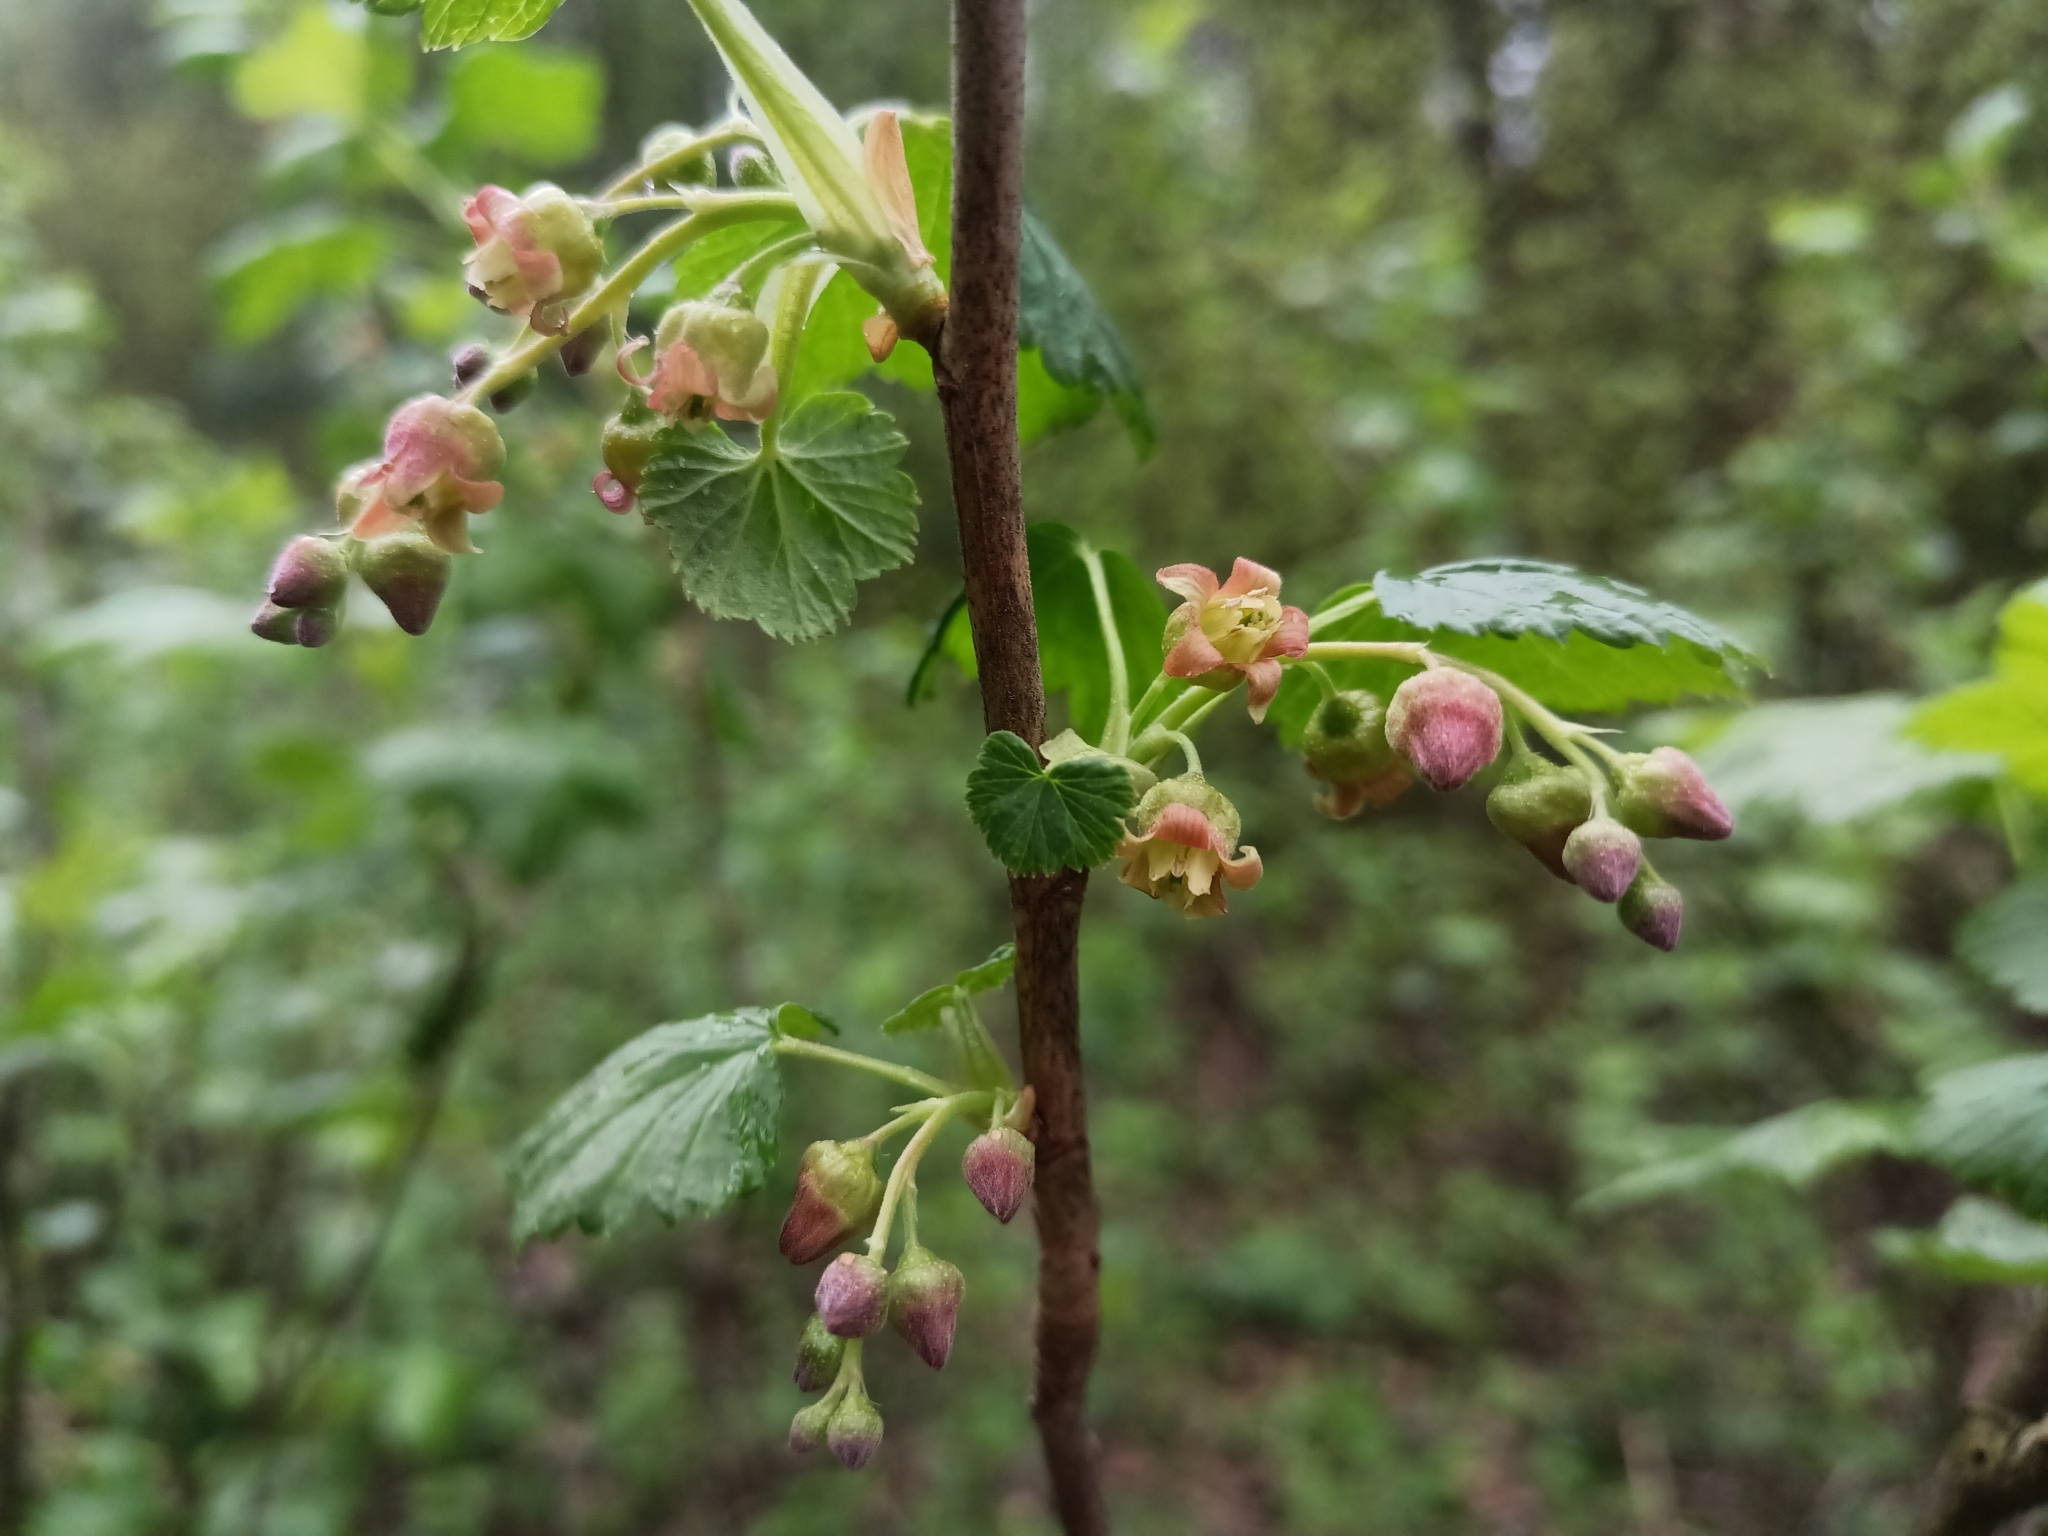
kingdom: Plantae
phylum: Tracheophyta
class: Magnoliopsida
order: Saxifragales
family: Grossulariaceae
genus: Ribes
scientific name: Ribes nigrum
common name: Black currant
